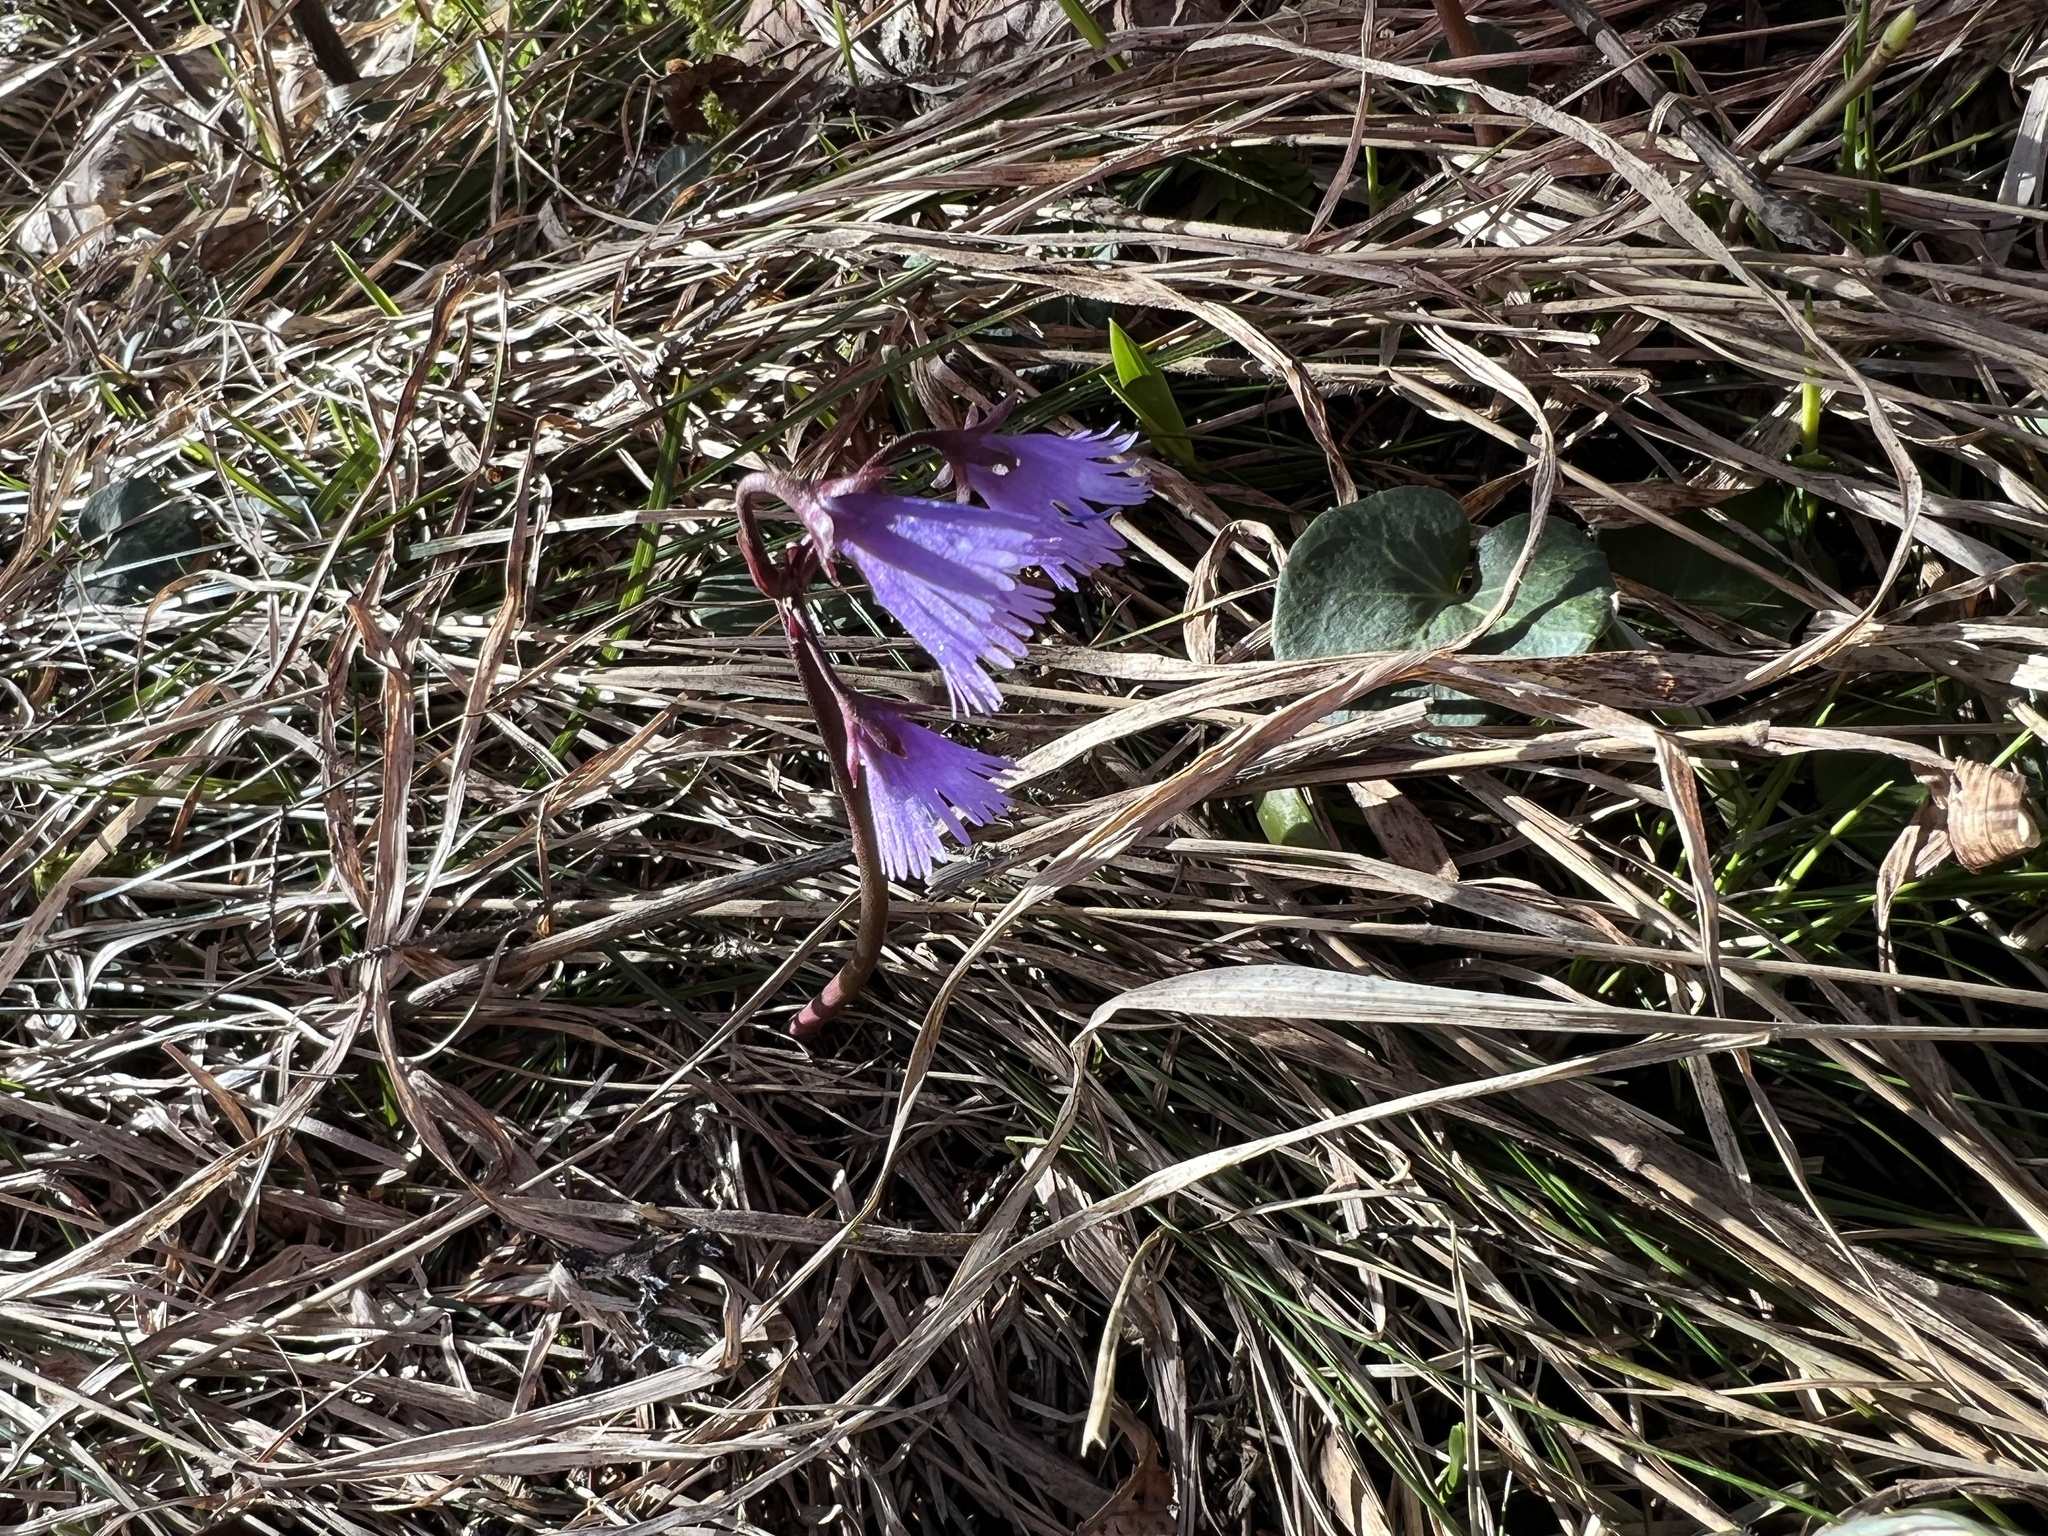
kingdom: Plantae
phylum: Tracheophyta
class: Magnoliopsida
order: Ericales
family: Primulaceae
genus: Soldanella
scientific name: Soldanella alpina
